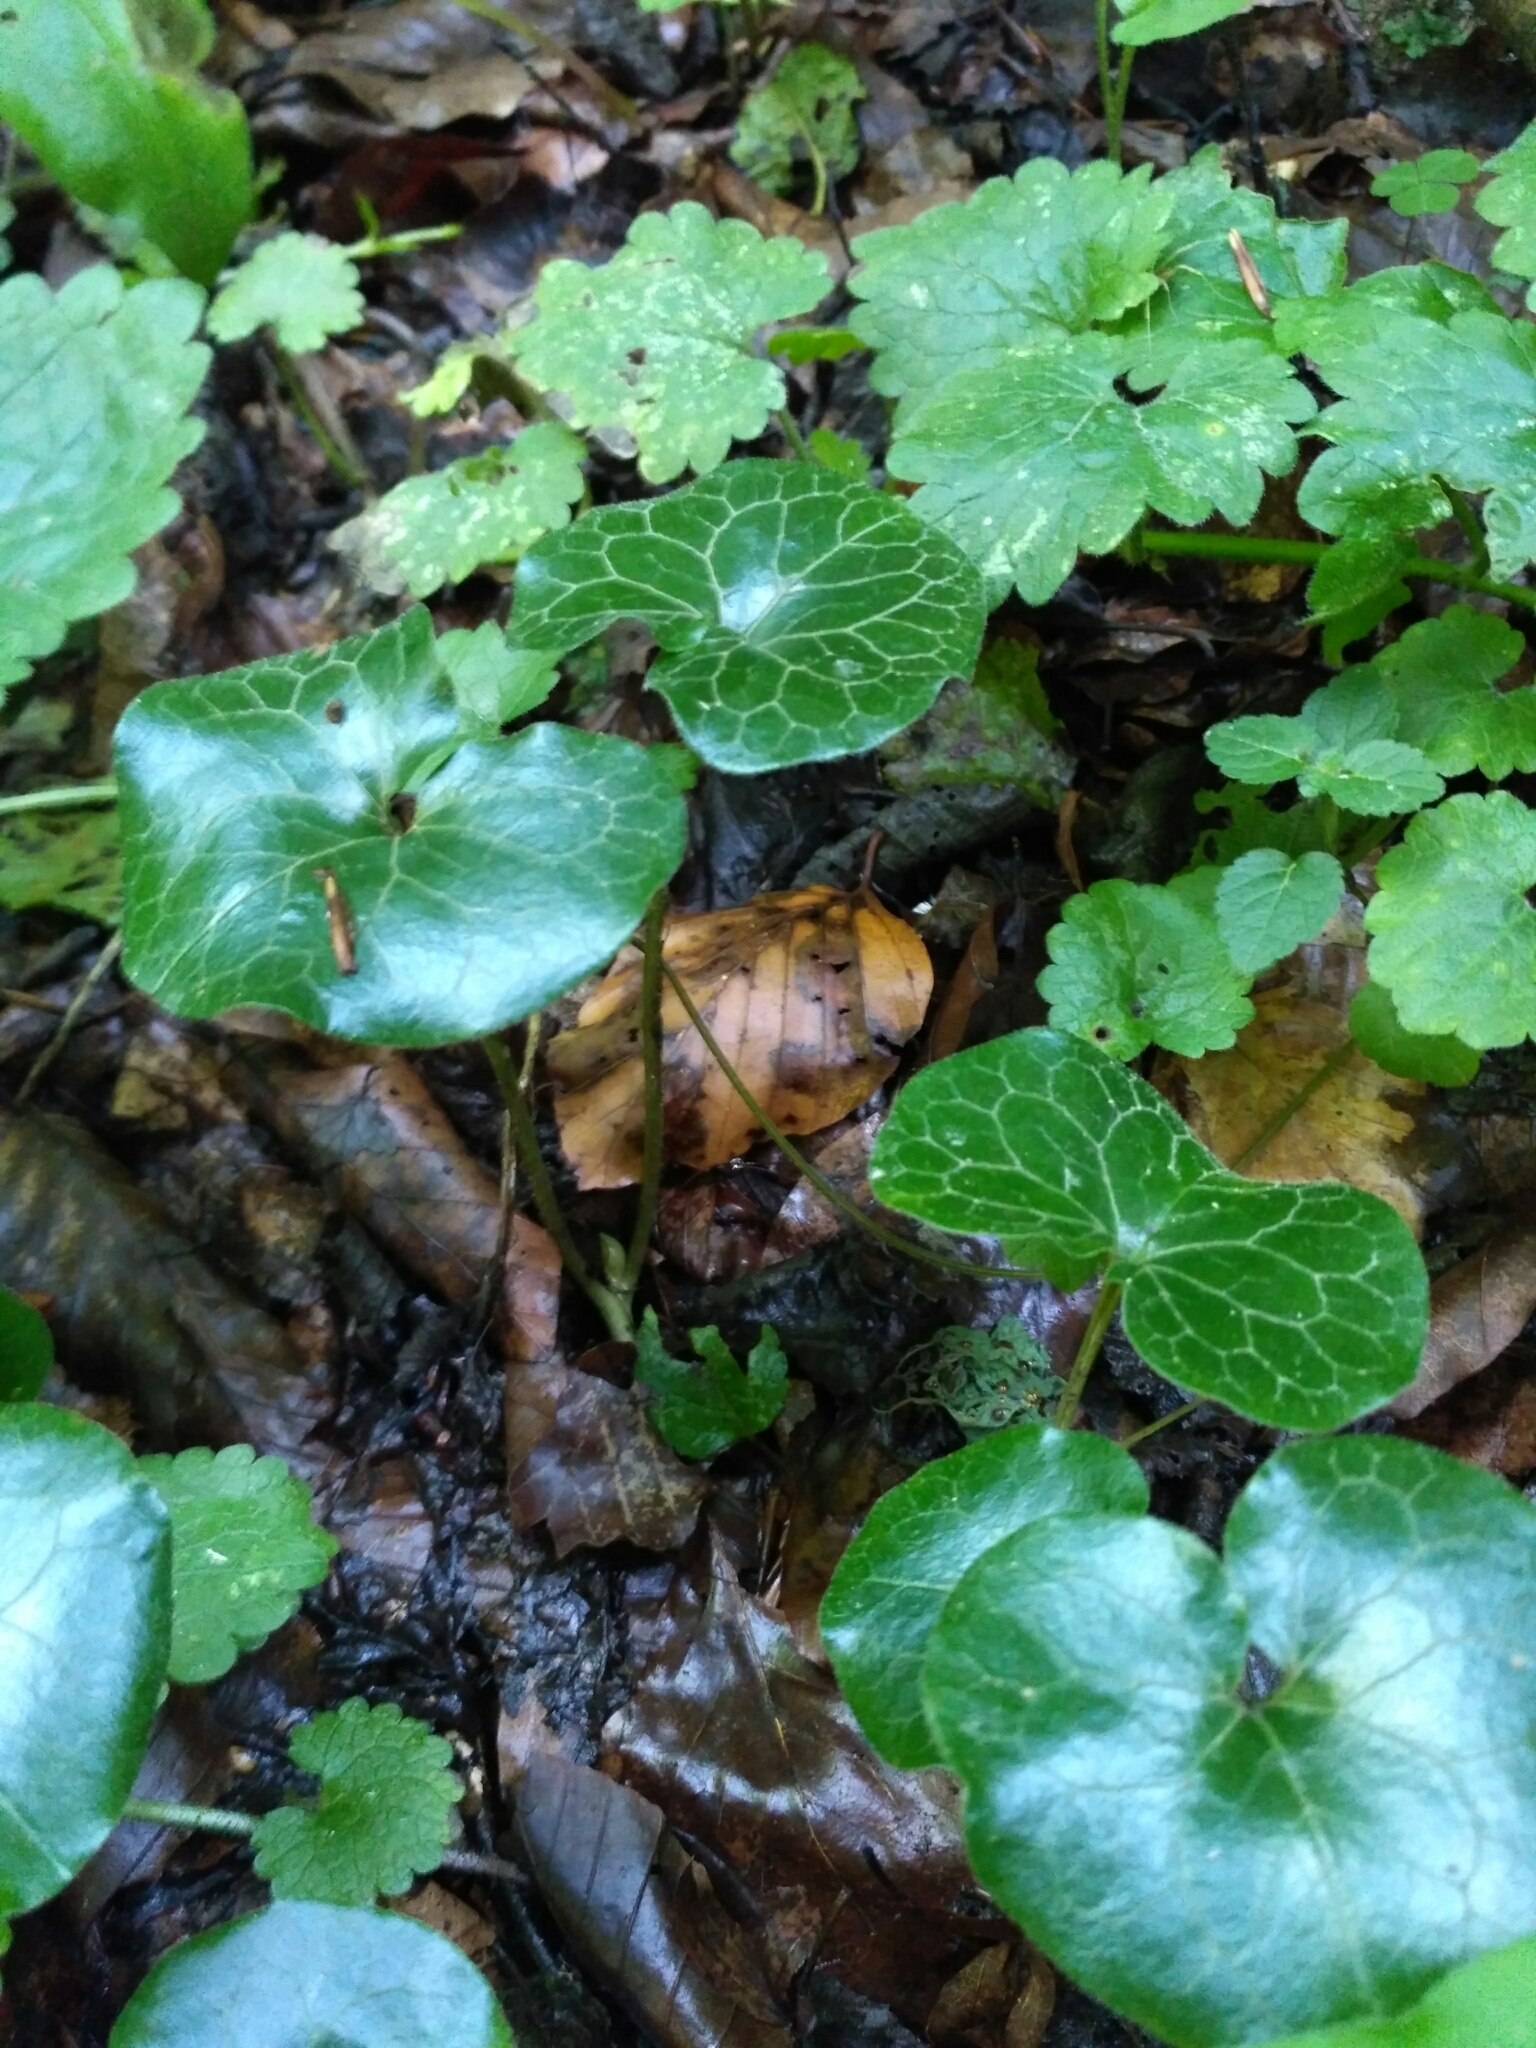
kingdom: Plantae
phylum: Tracheophyta
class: Magnoliopsida
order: Piperales
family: Aristolochiaceae
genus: Asarum
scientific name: Asarum europaeum
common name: Asarabacca
